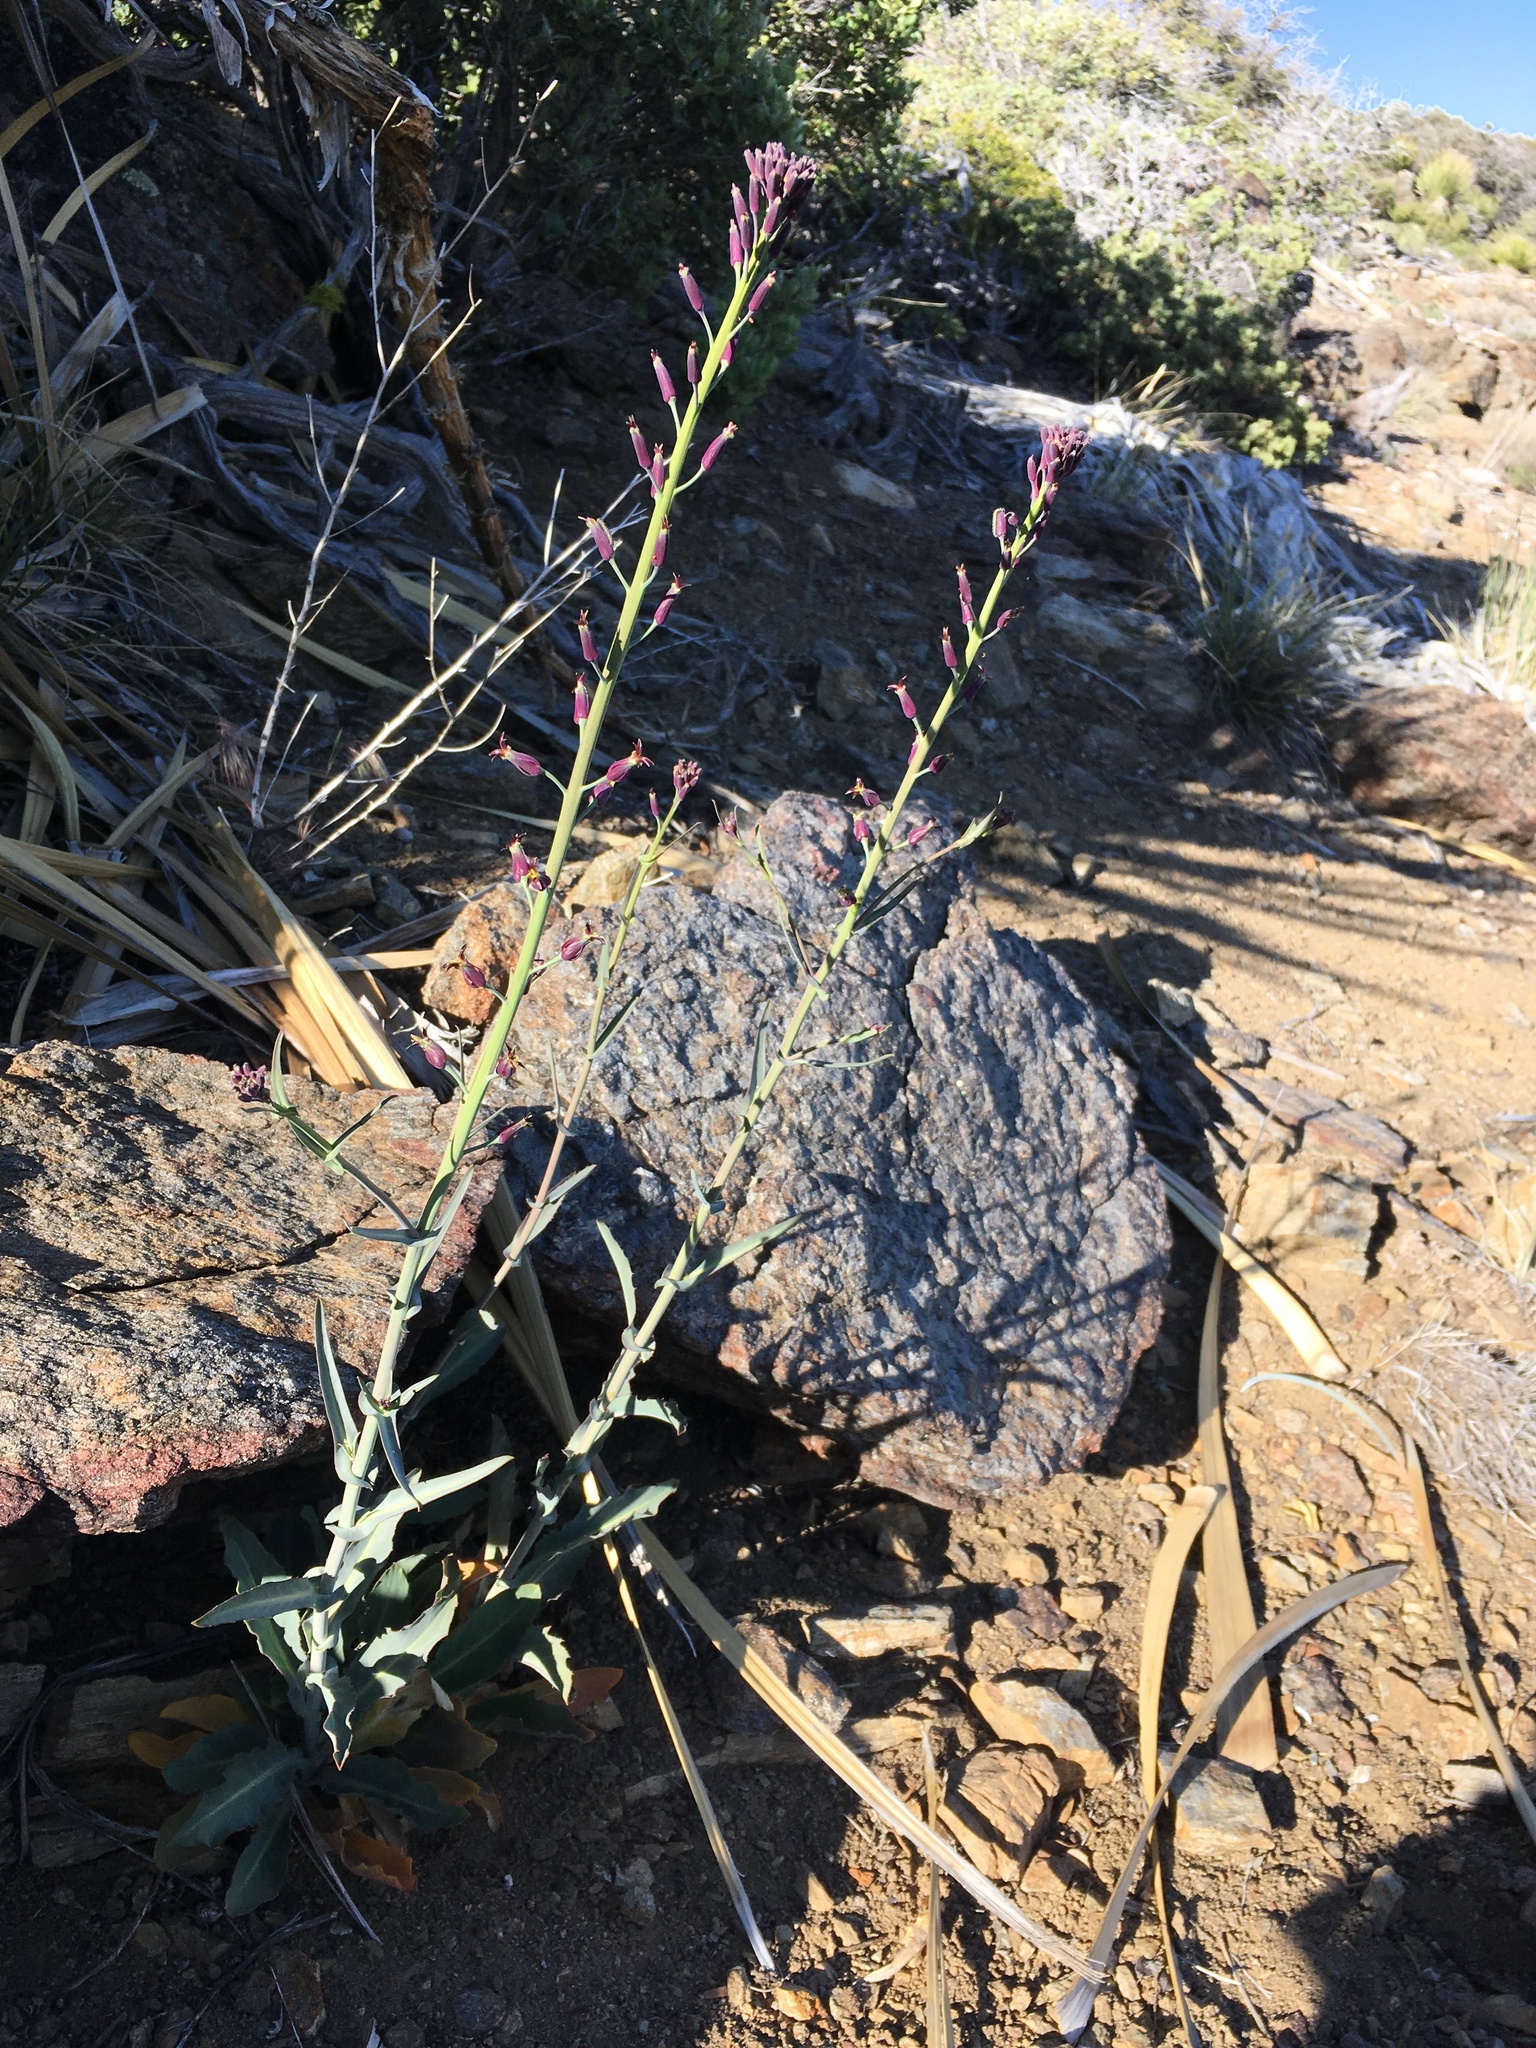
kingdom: Plantae
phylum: Tracheophyta
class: Magnoliopsida
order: Brassicales
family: Brassicaceae
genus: Streptanthus
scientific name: Streptanthus campestris
